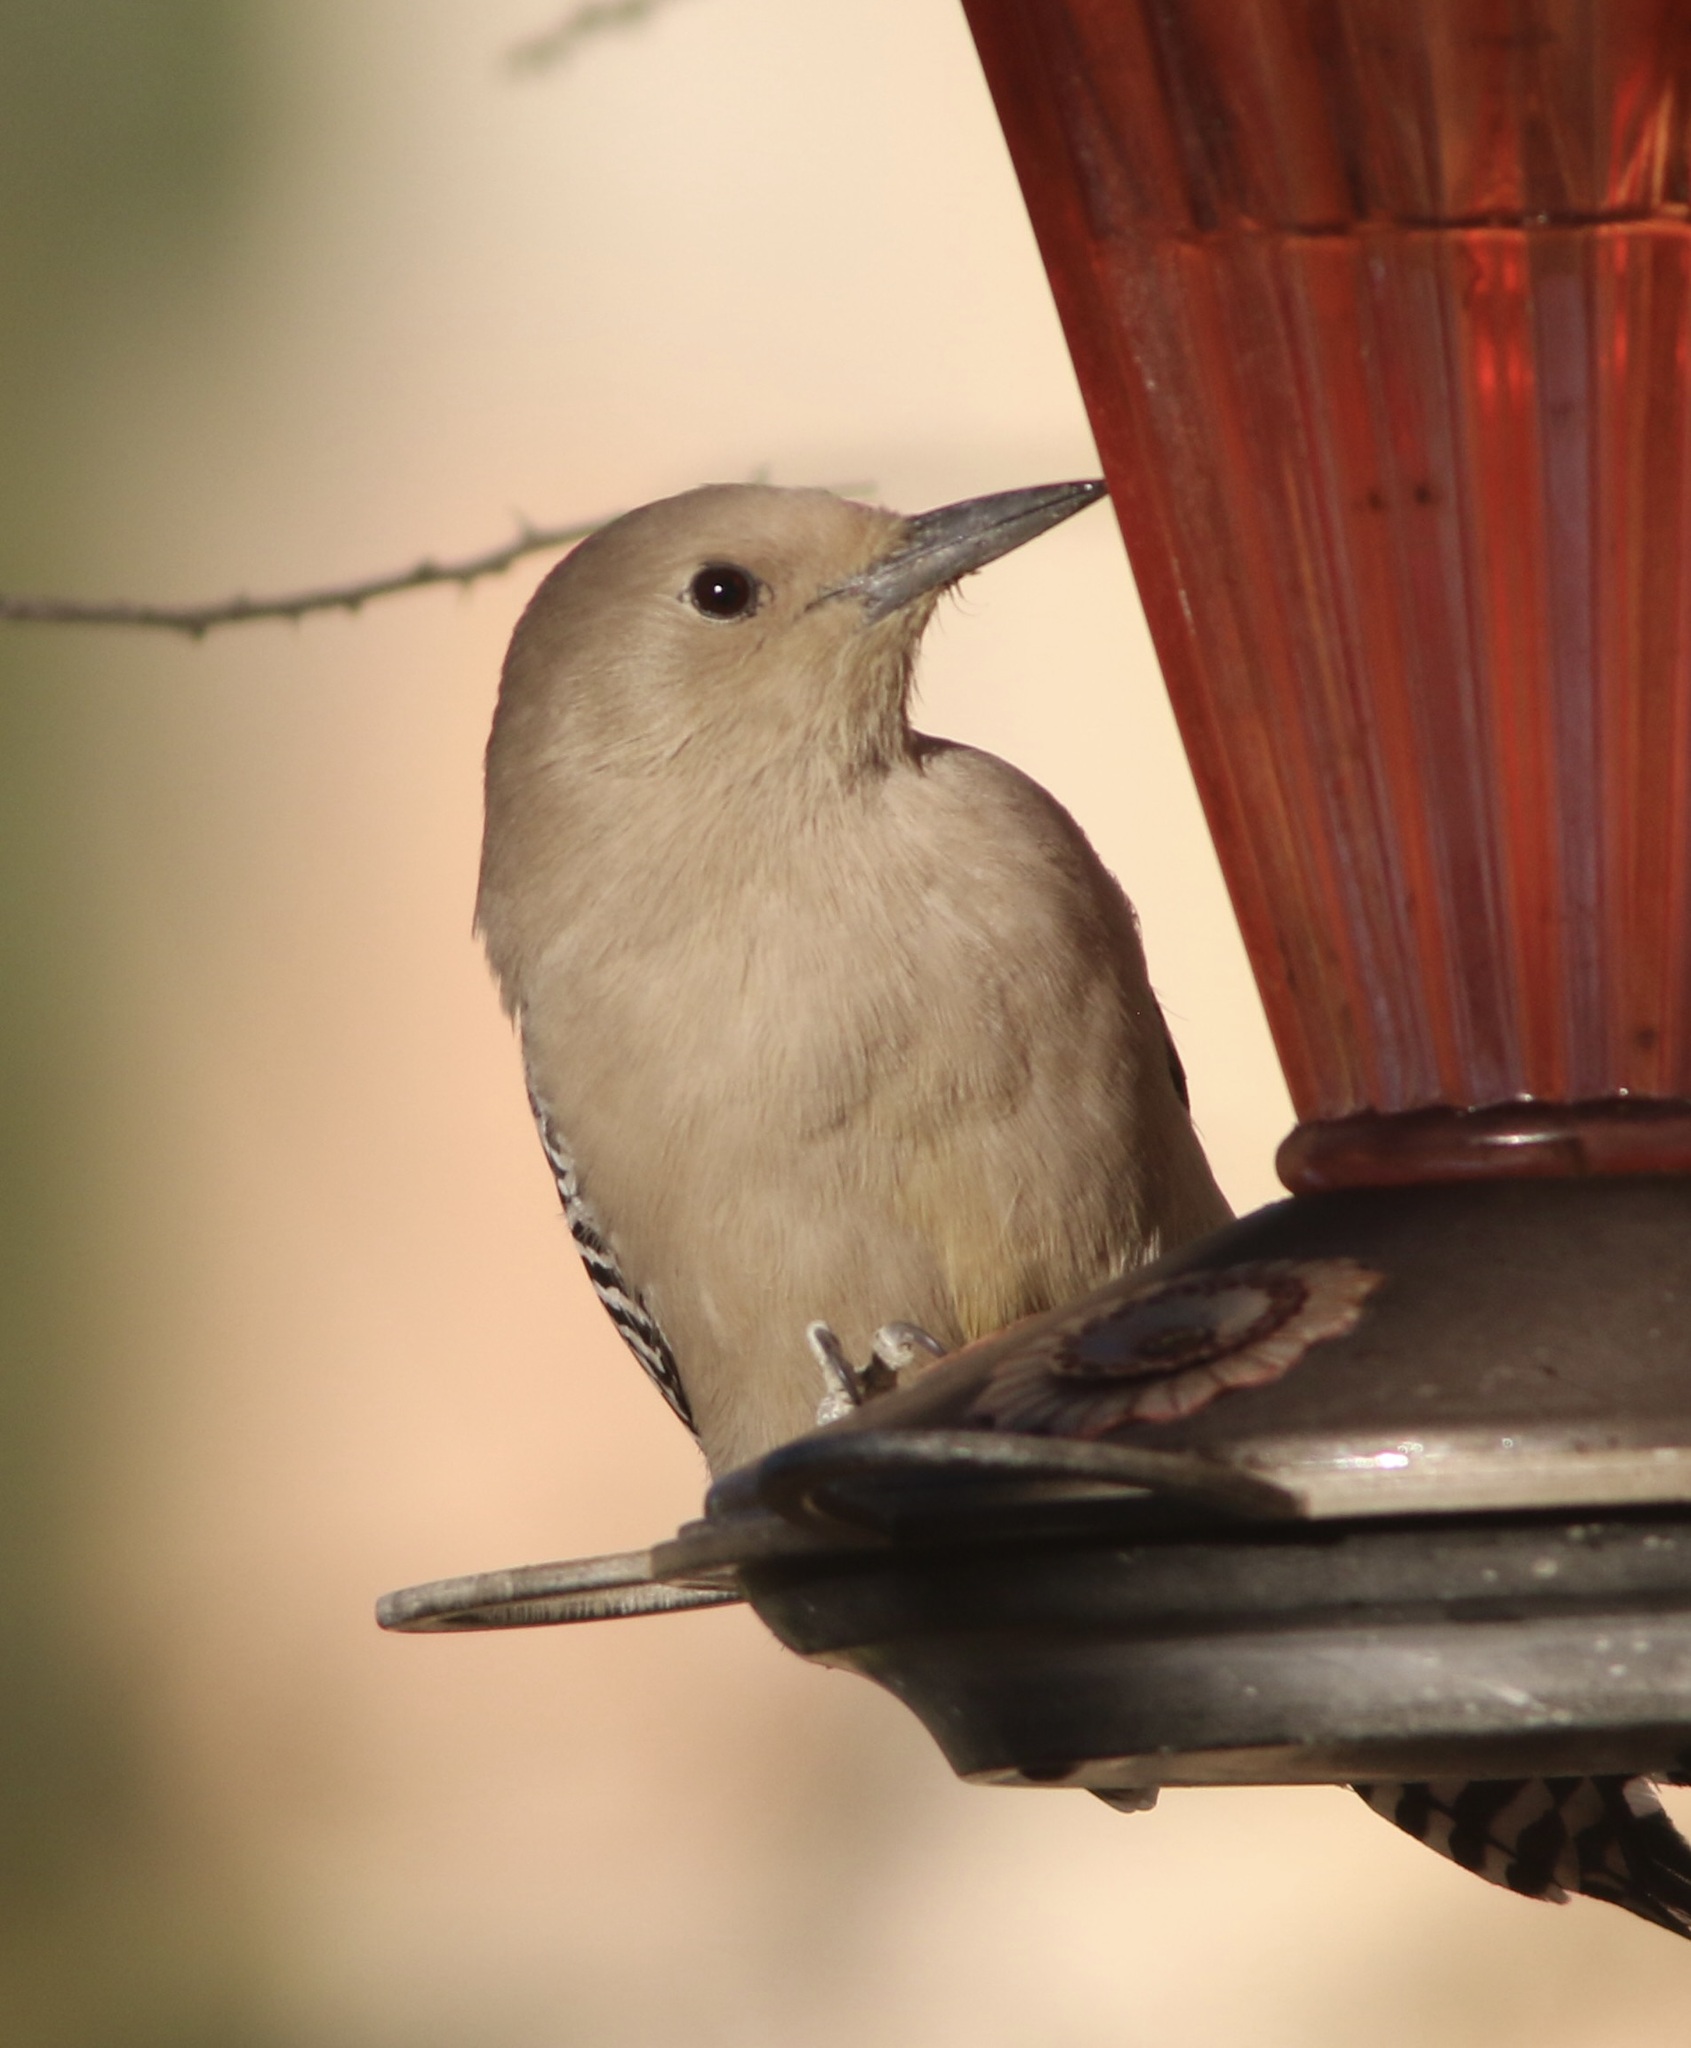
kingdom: Animalia
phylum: Chordata
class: Aves
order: Piciformes
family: Picidae
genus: Melanerpes
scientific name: Melanerpes uropygialis
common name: Gila woodpecker
